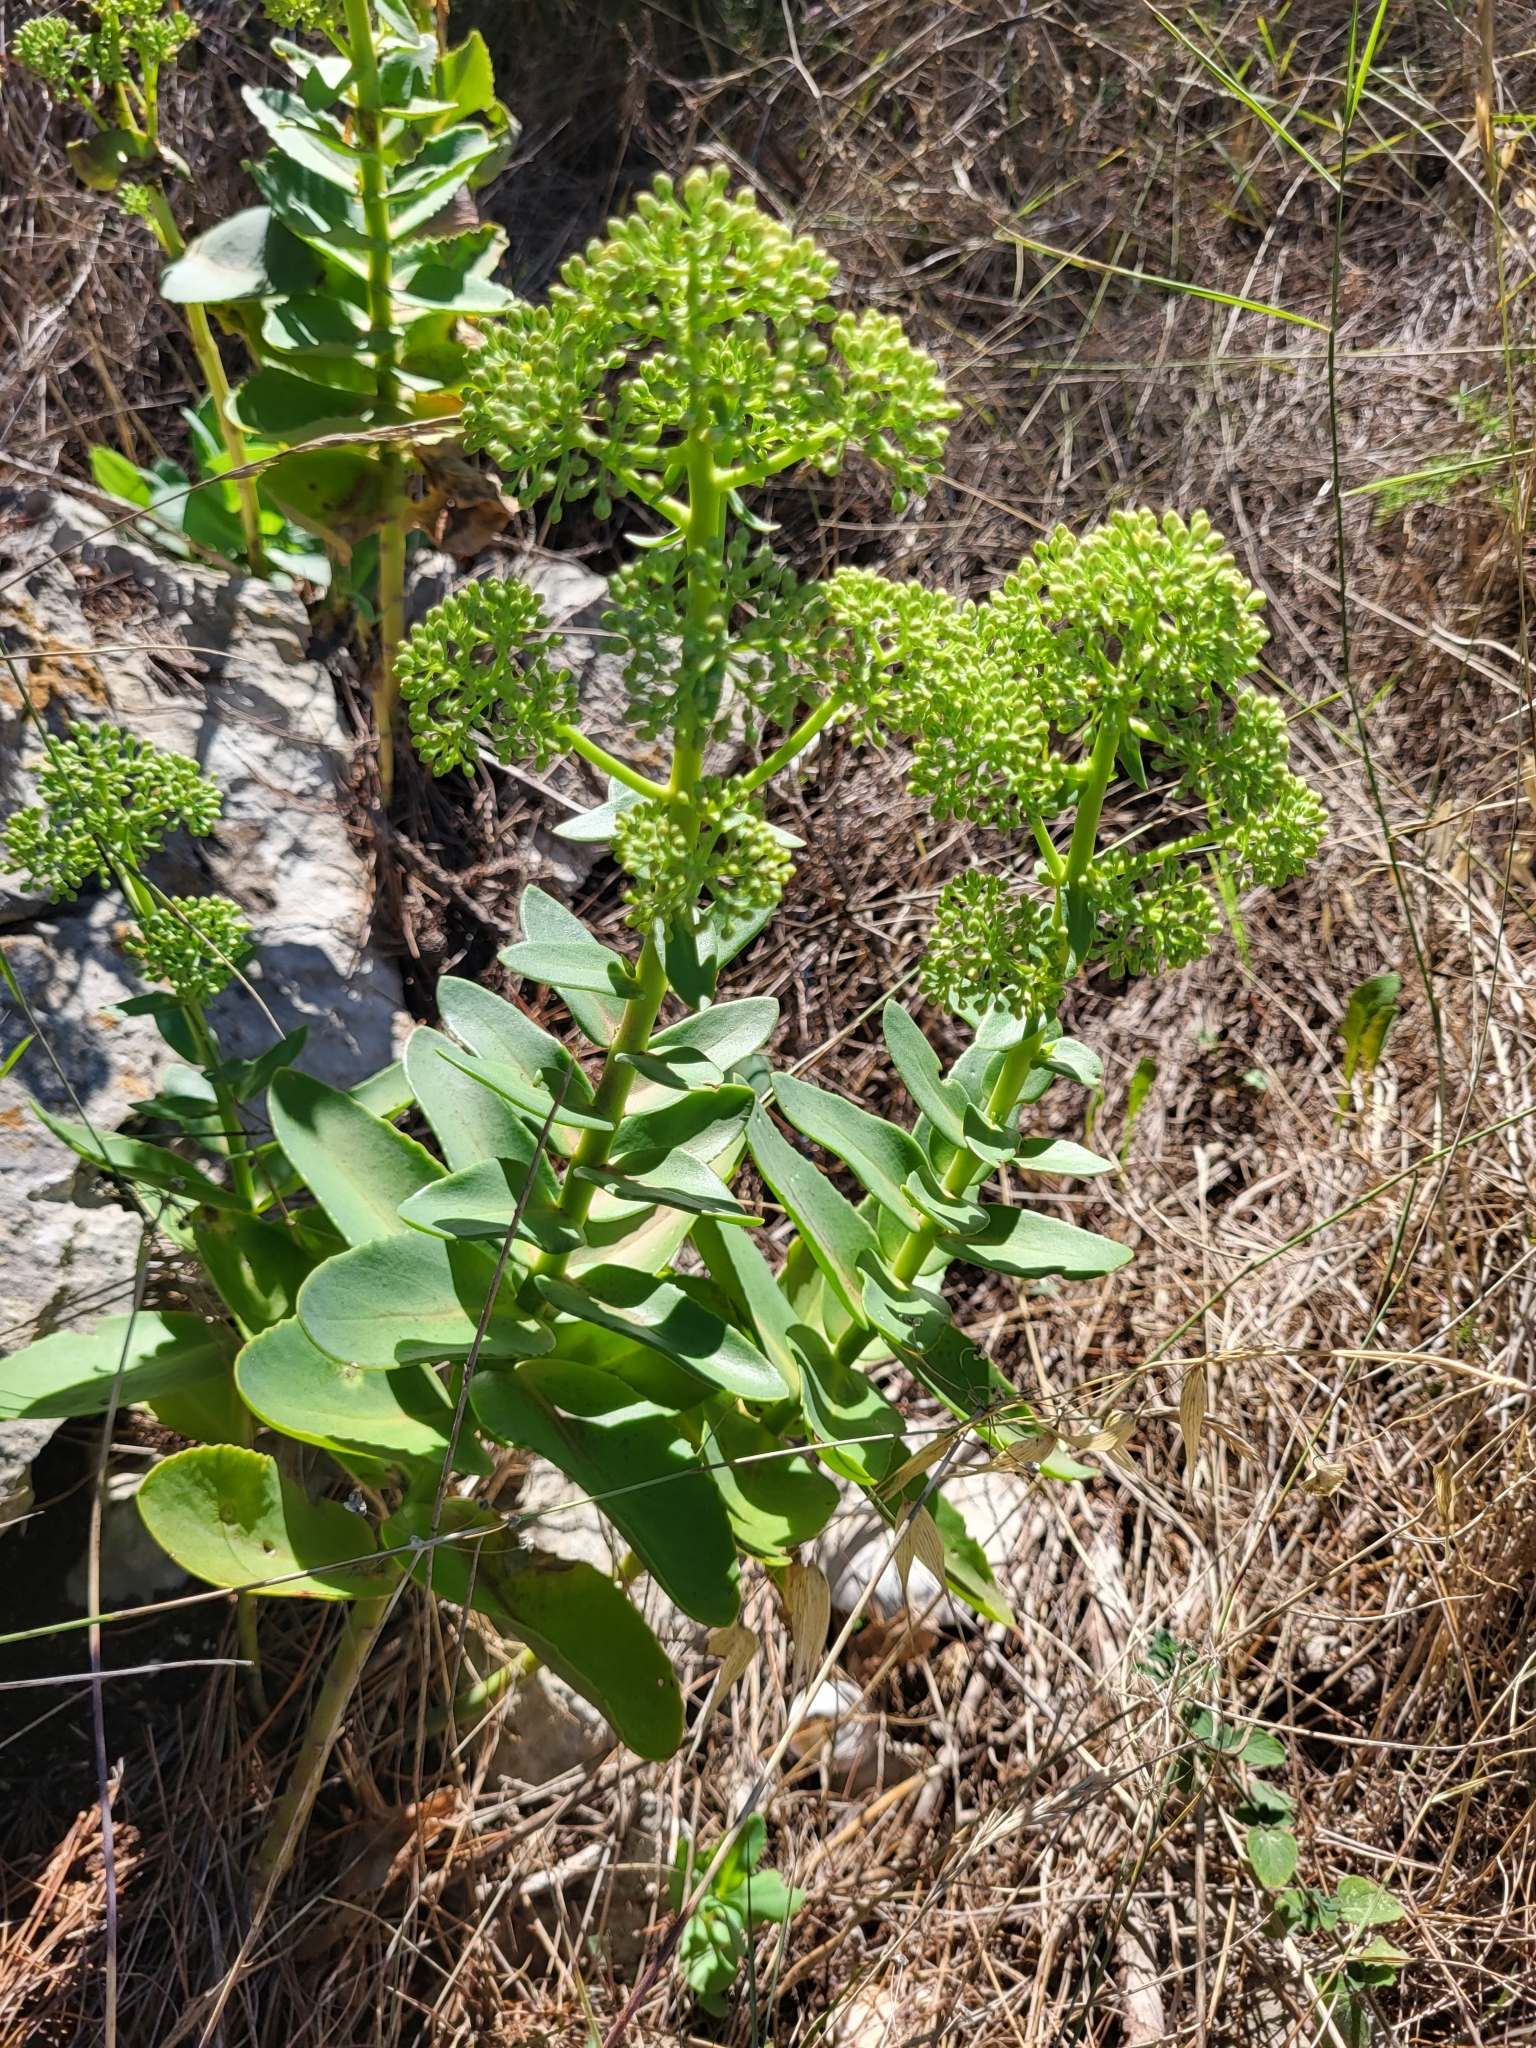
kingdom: Plantae
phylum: Tracheophyta
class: Magnoliopsida
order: Saxifragales
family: Crassulaceae
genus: Hylotelephium
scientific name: Hylotelephium maximum
